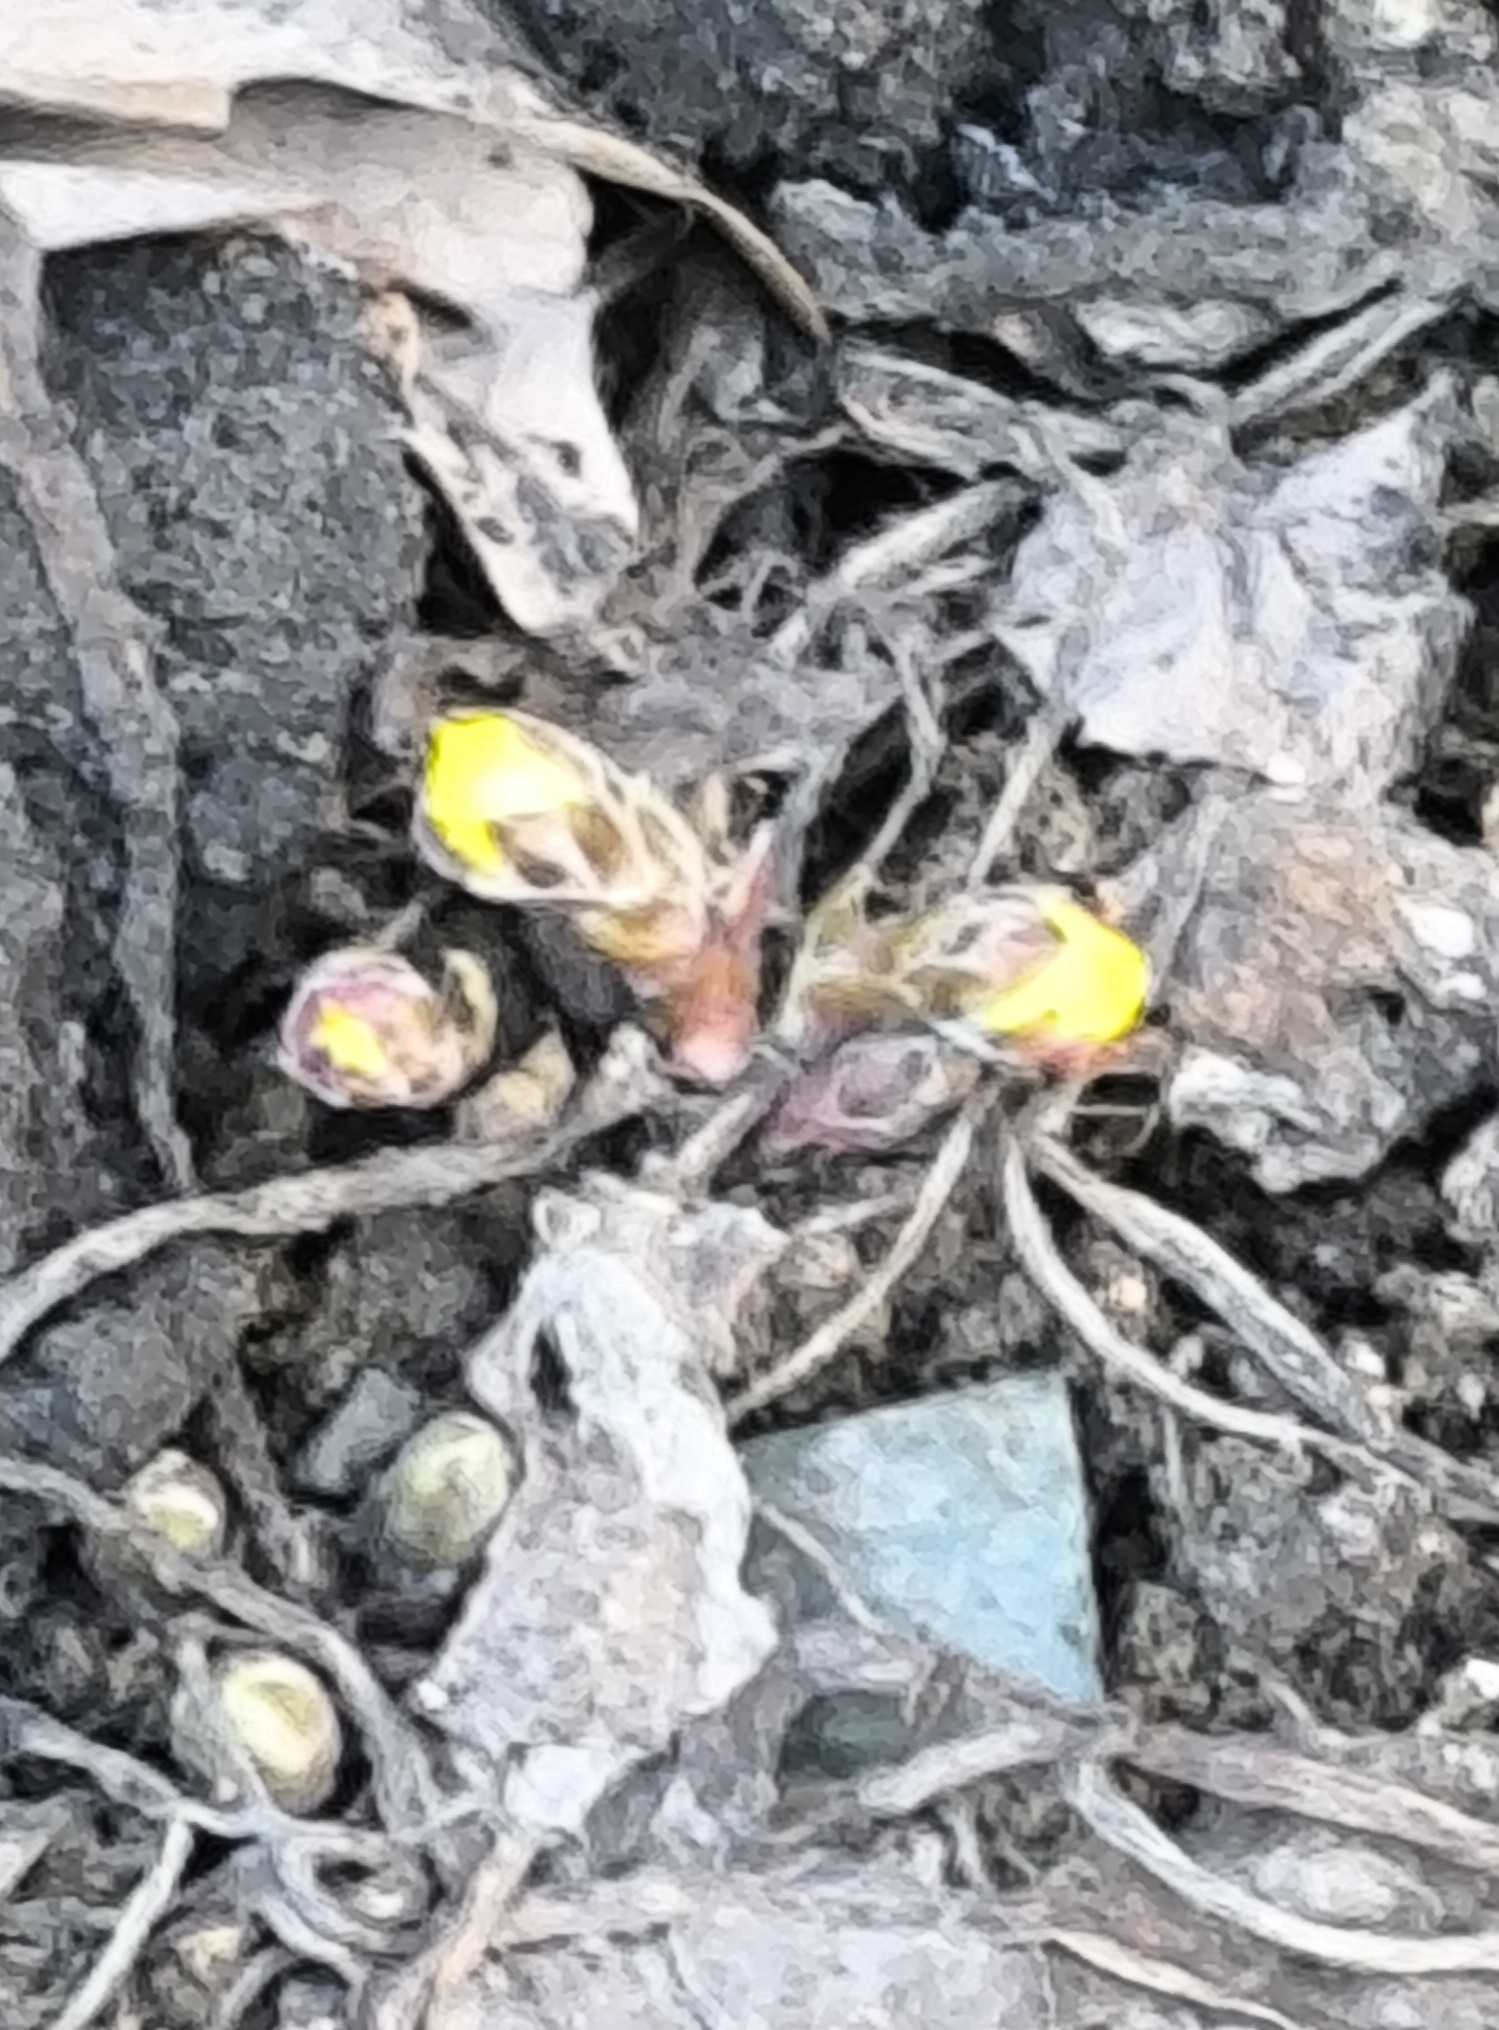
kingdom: Plantae
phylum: Tracheophyta
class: Magnoliopsida
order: Asterales
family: Asteraceae
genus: Tussilago
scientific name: Tussilago farfara
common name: Coltsfoot
